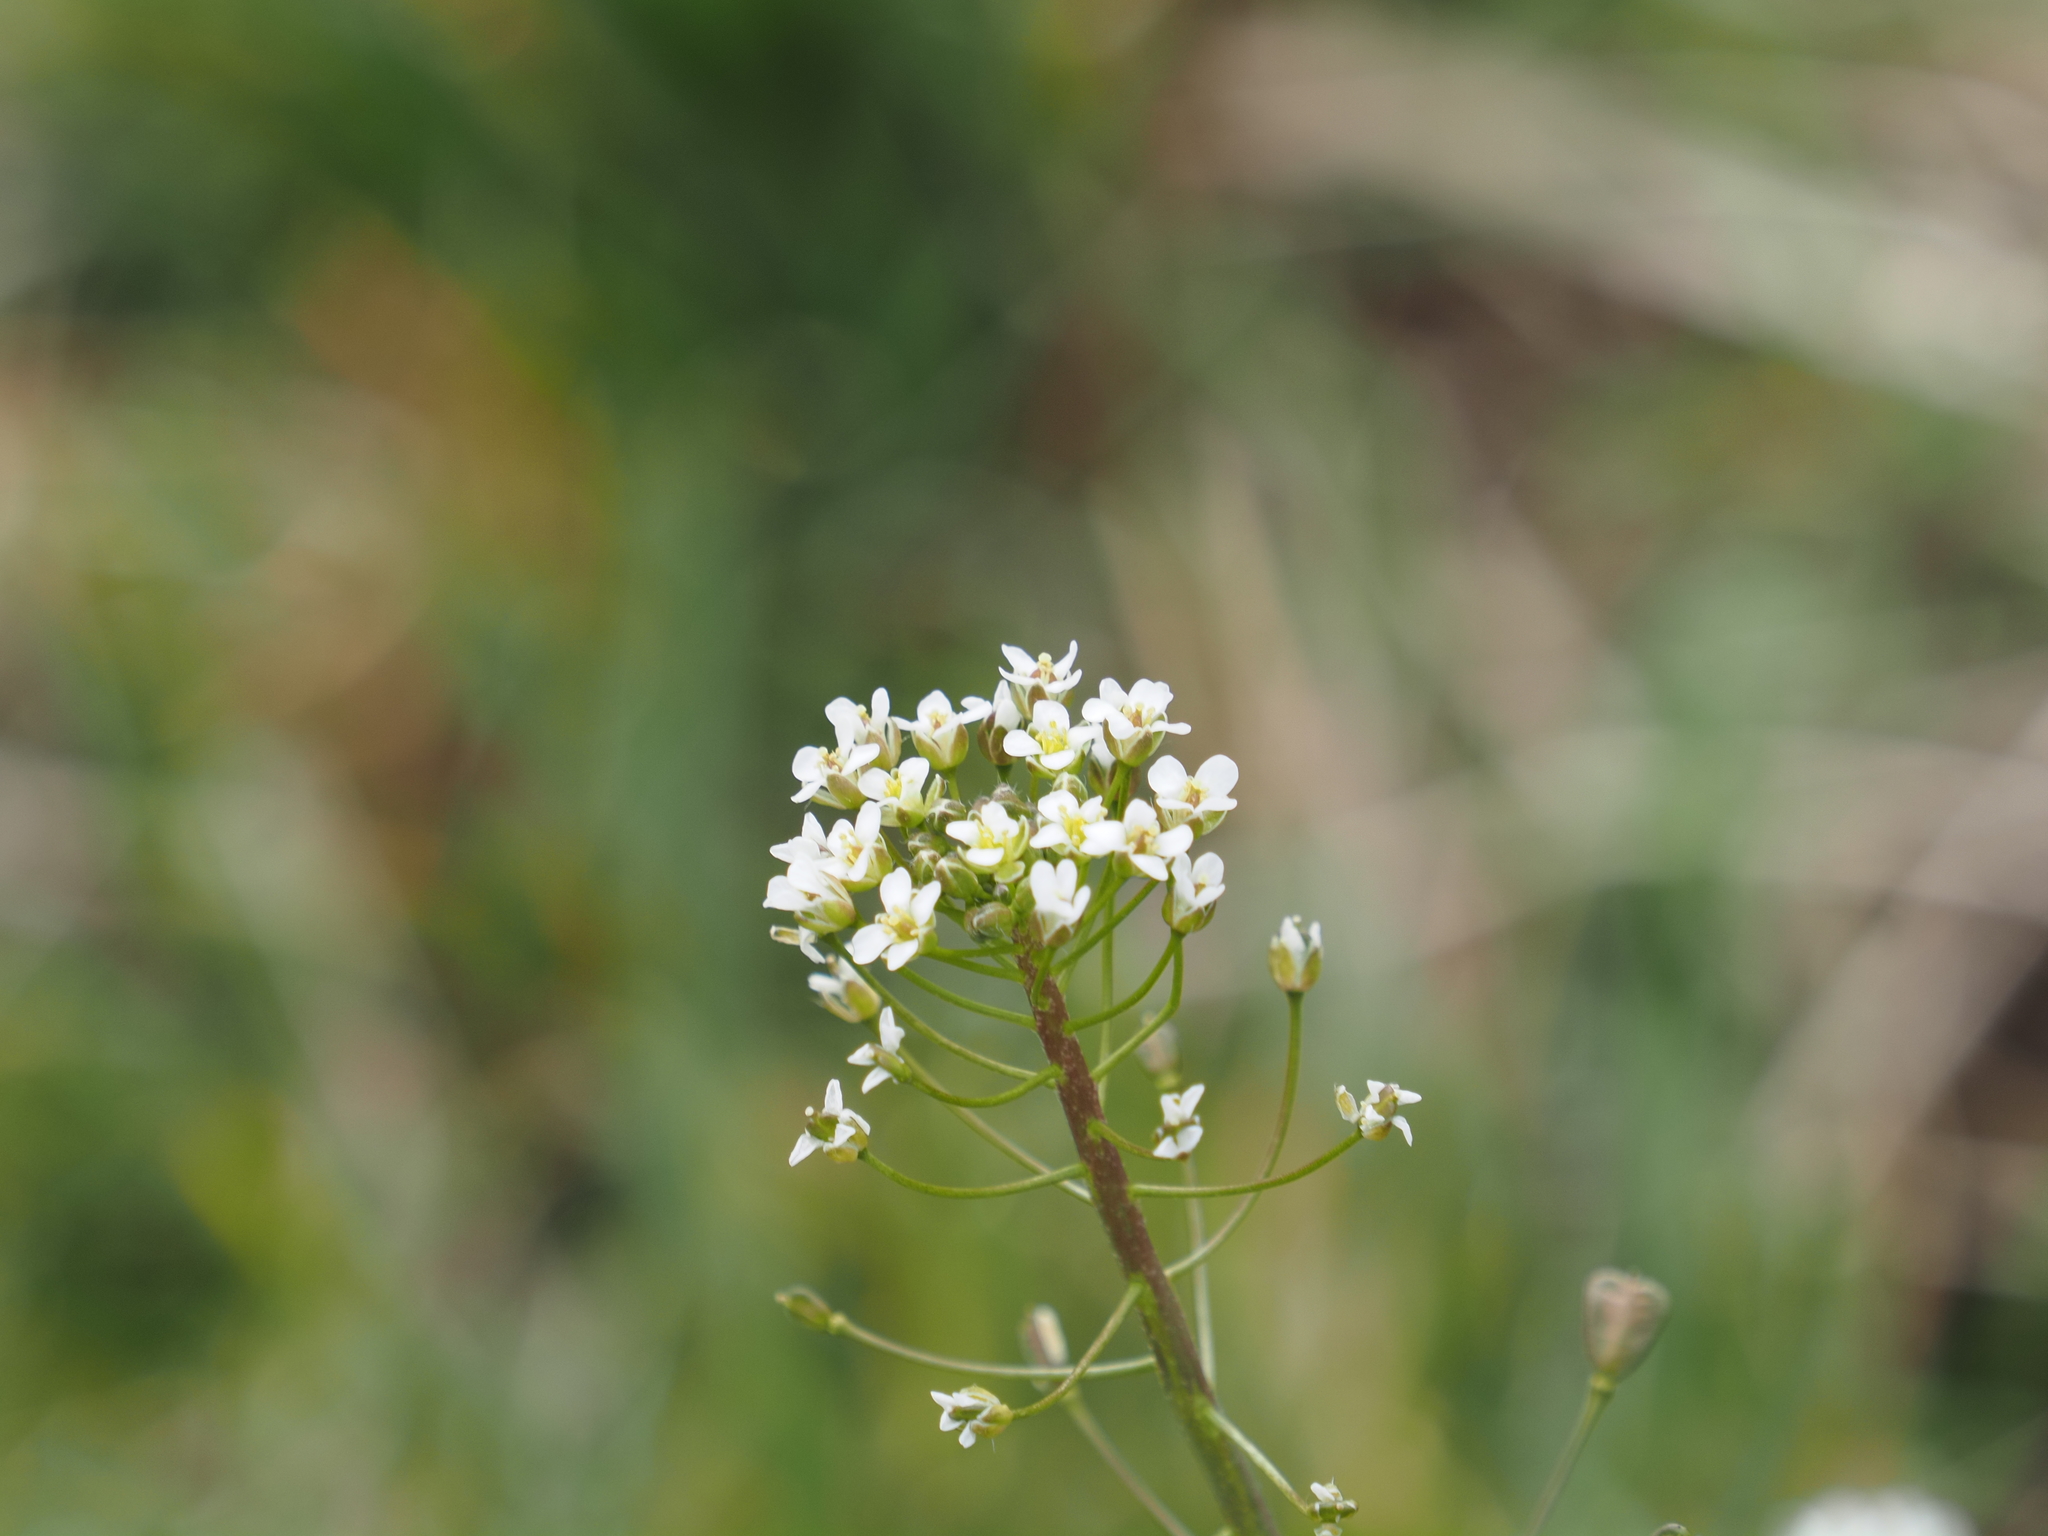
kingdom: Plantae
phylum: Tracheophyta
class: Magnoliopsida
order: Brassicales
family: Brassicaceae
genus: Capsella
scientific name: Capsella bursa-pastoris
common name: Shepherd's purse
